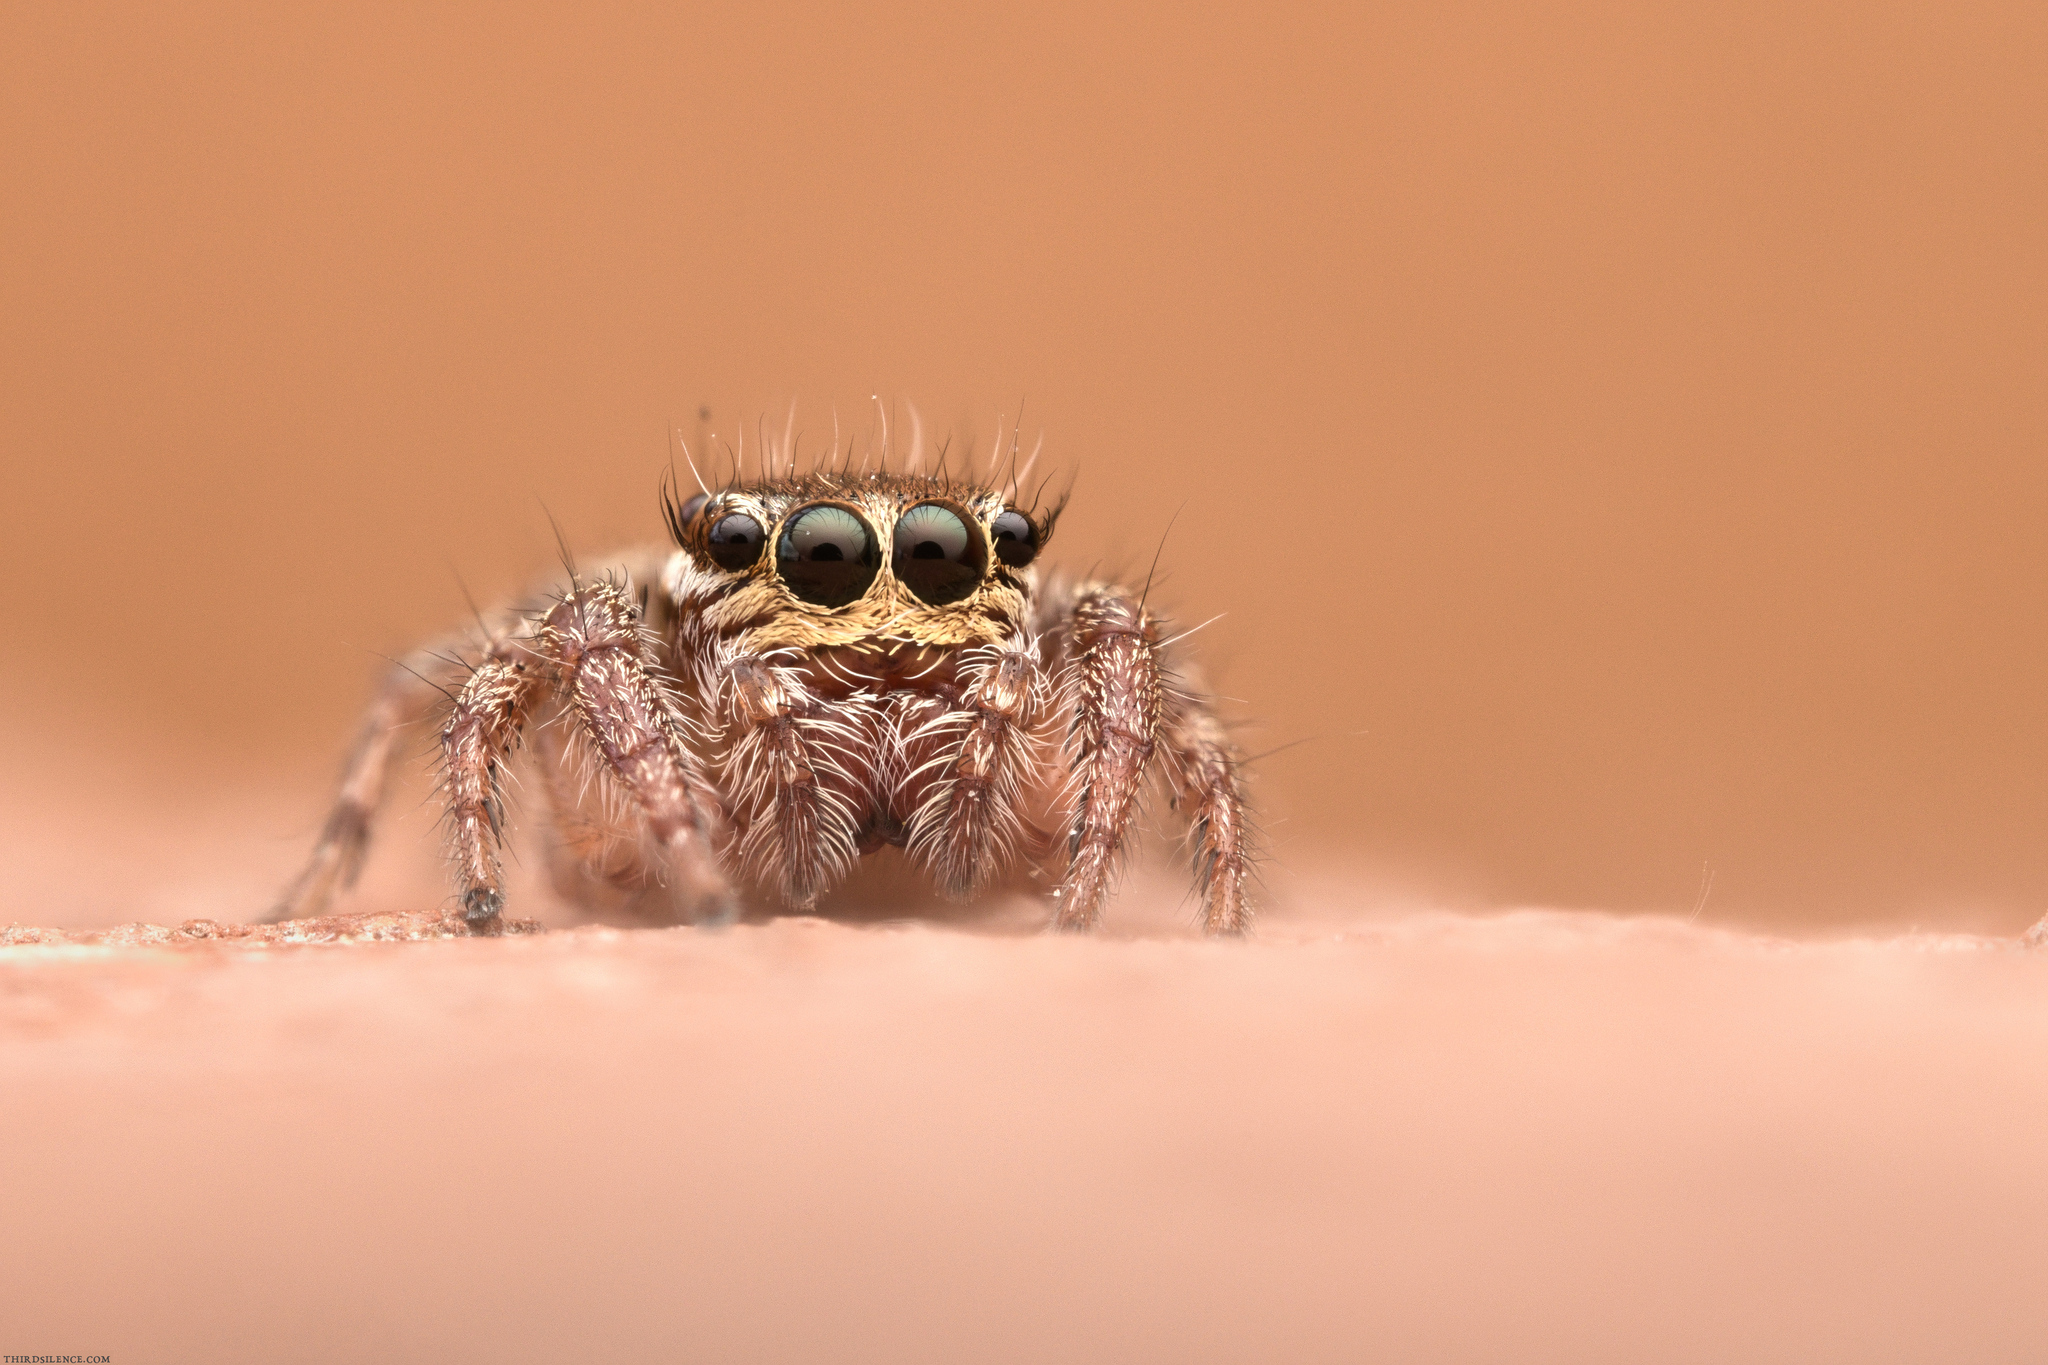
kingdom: Animalia
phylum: Arthropoda
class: Arachnida
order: Araneae
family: Salticidae
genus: Evarcha
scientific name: Evarcha jucunda
